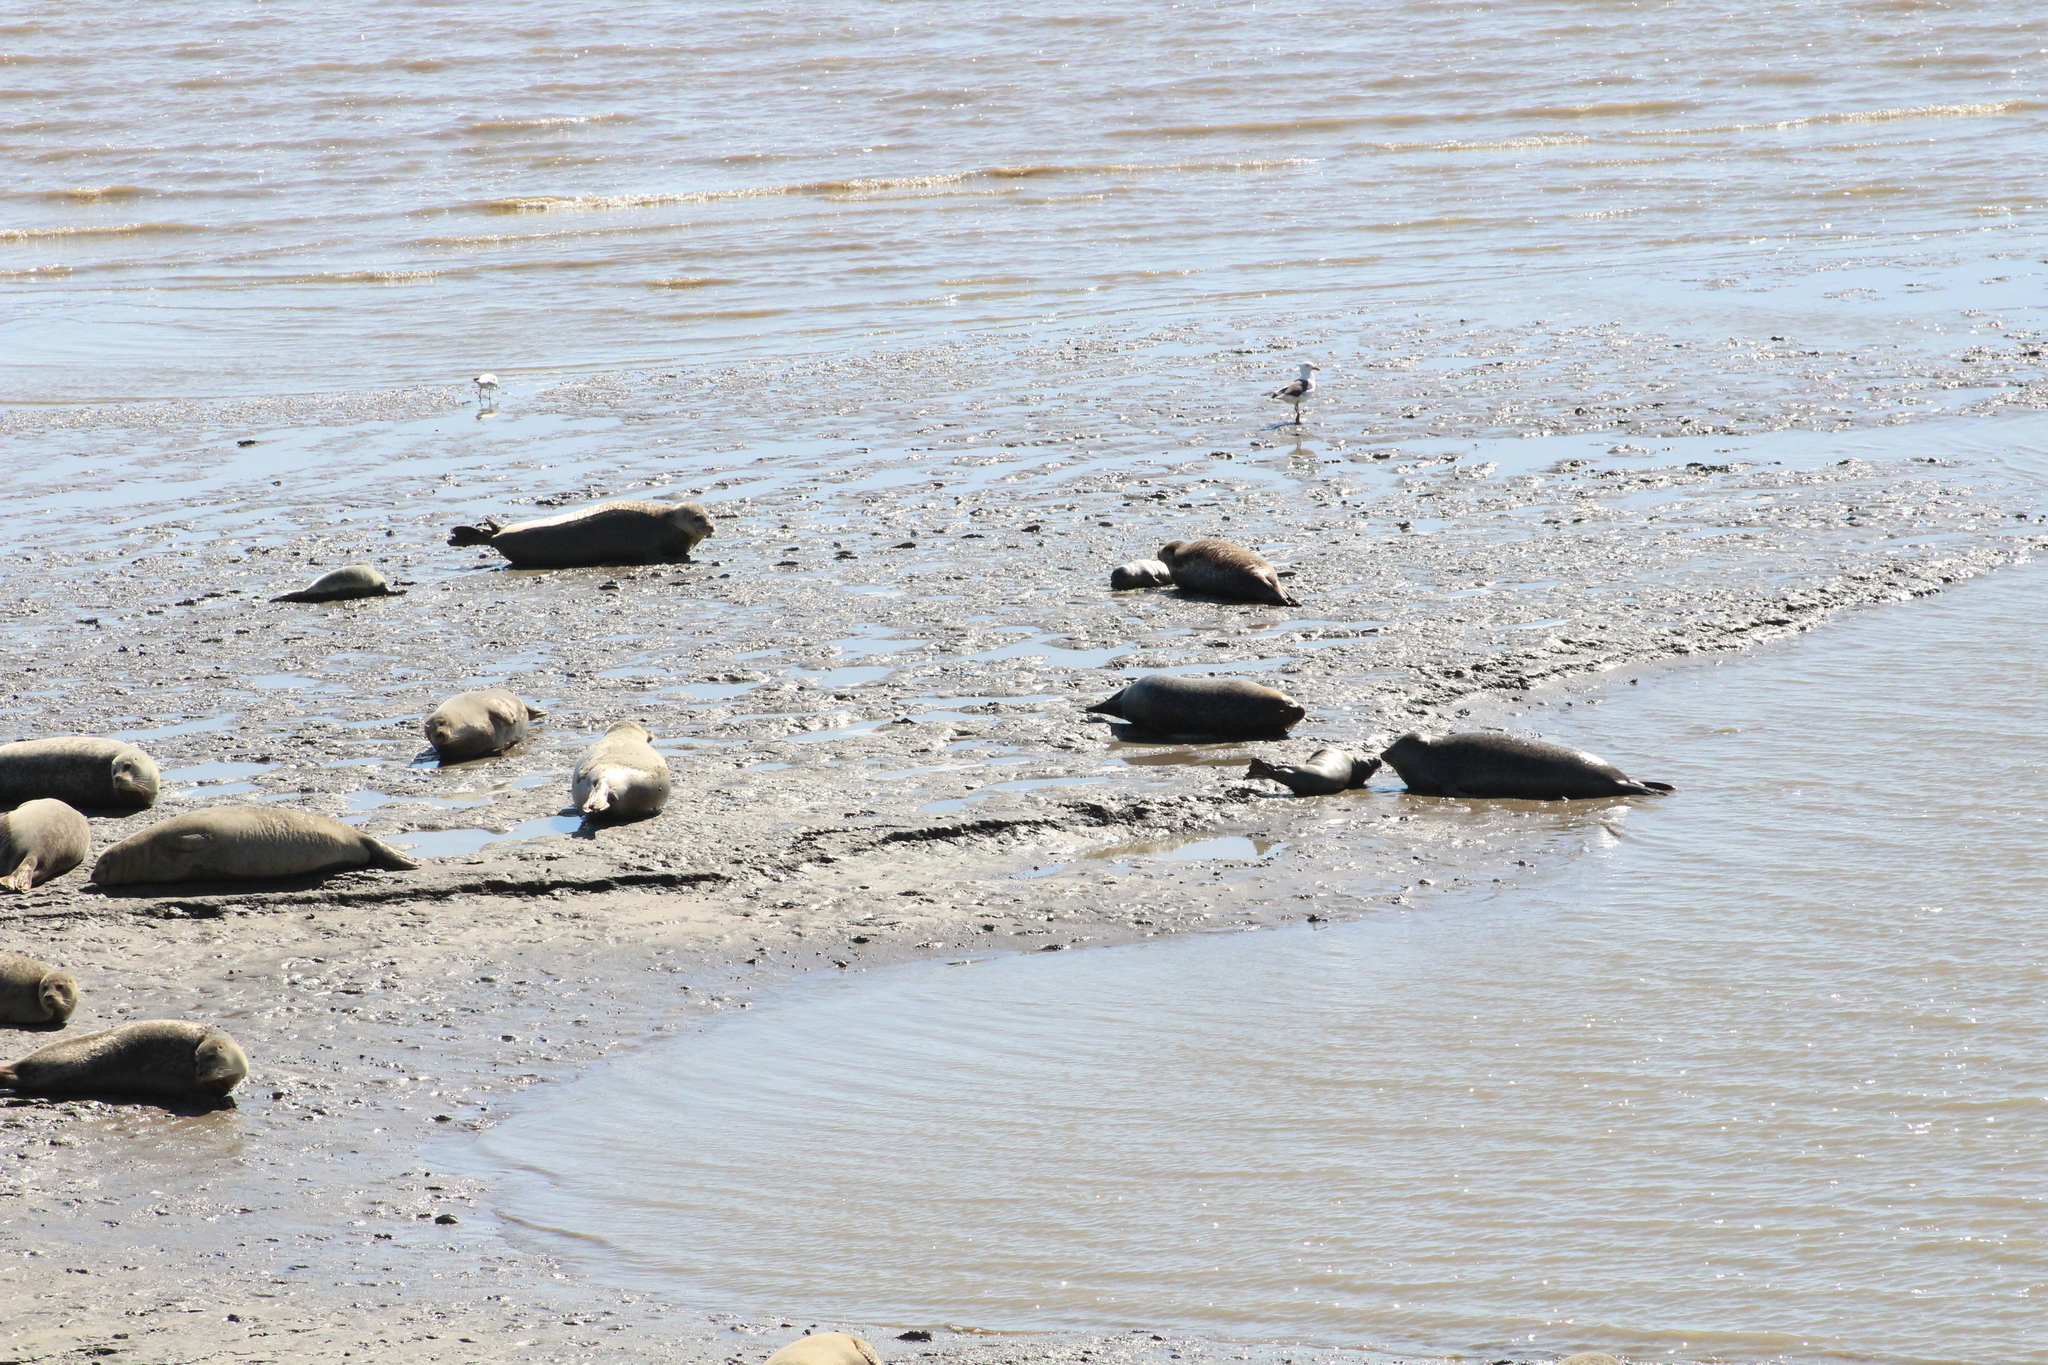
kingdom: Animalia
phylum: Chordata
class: Mammalia
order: Carnivora
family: Phocidae
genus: Phoca
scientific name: Phoca vitulina
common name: Harbor seal
